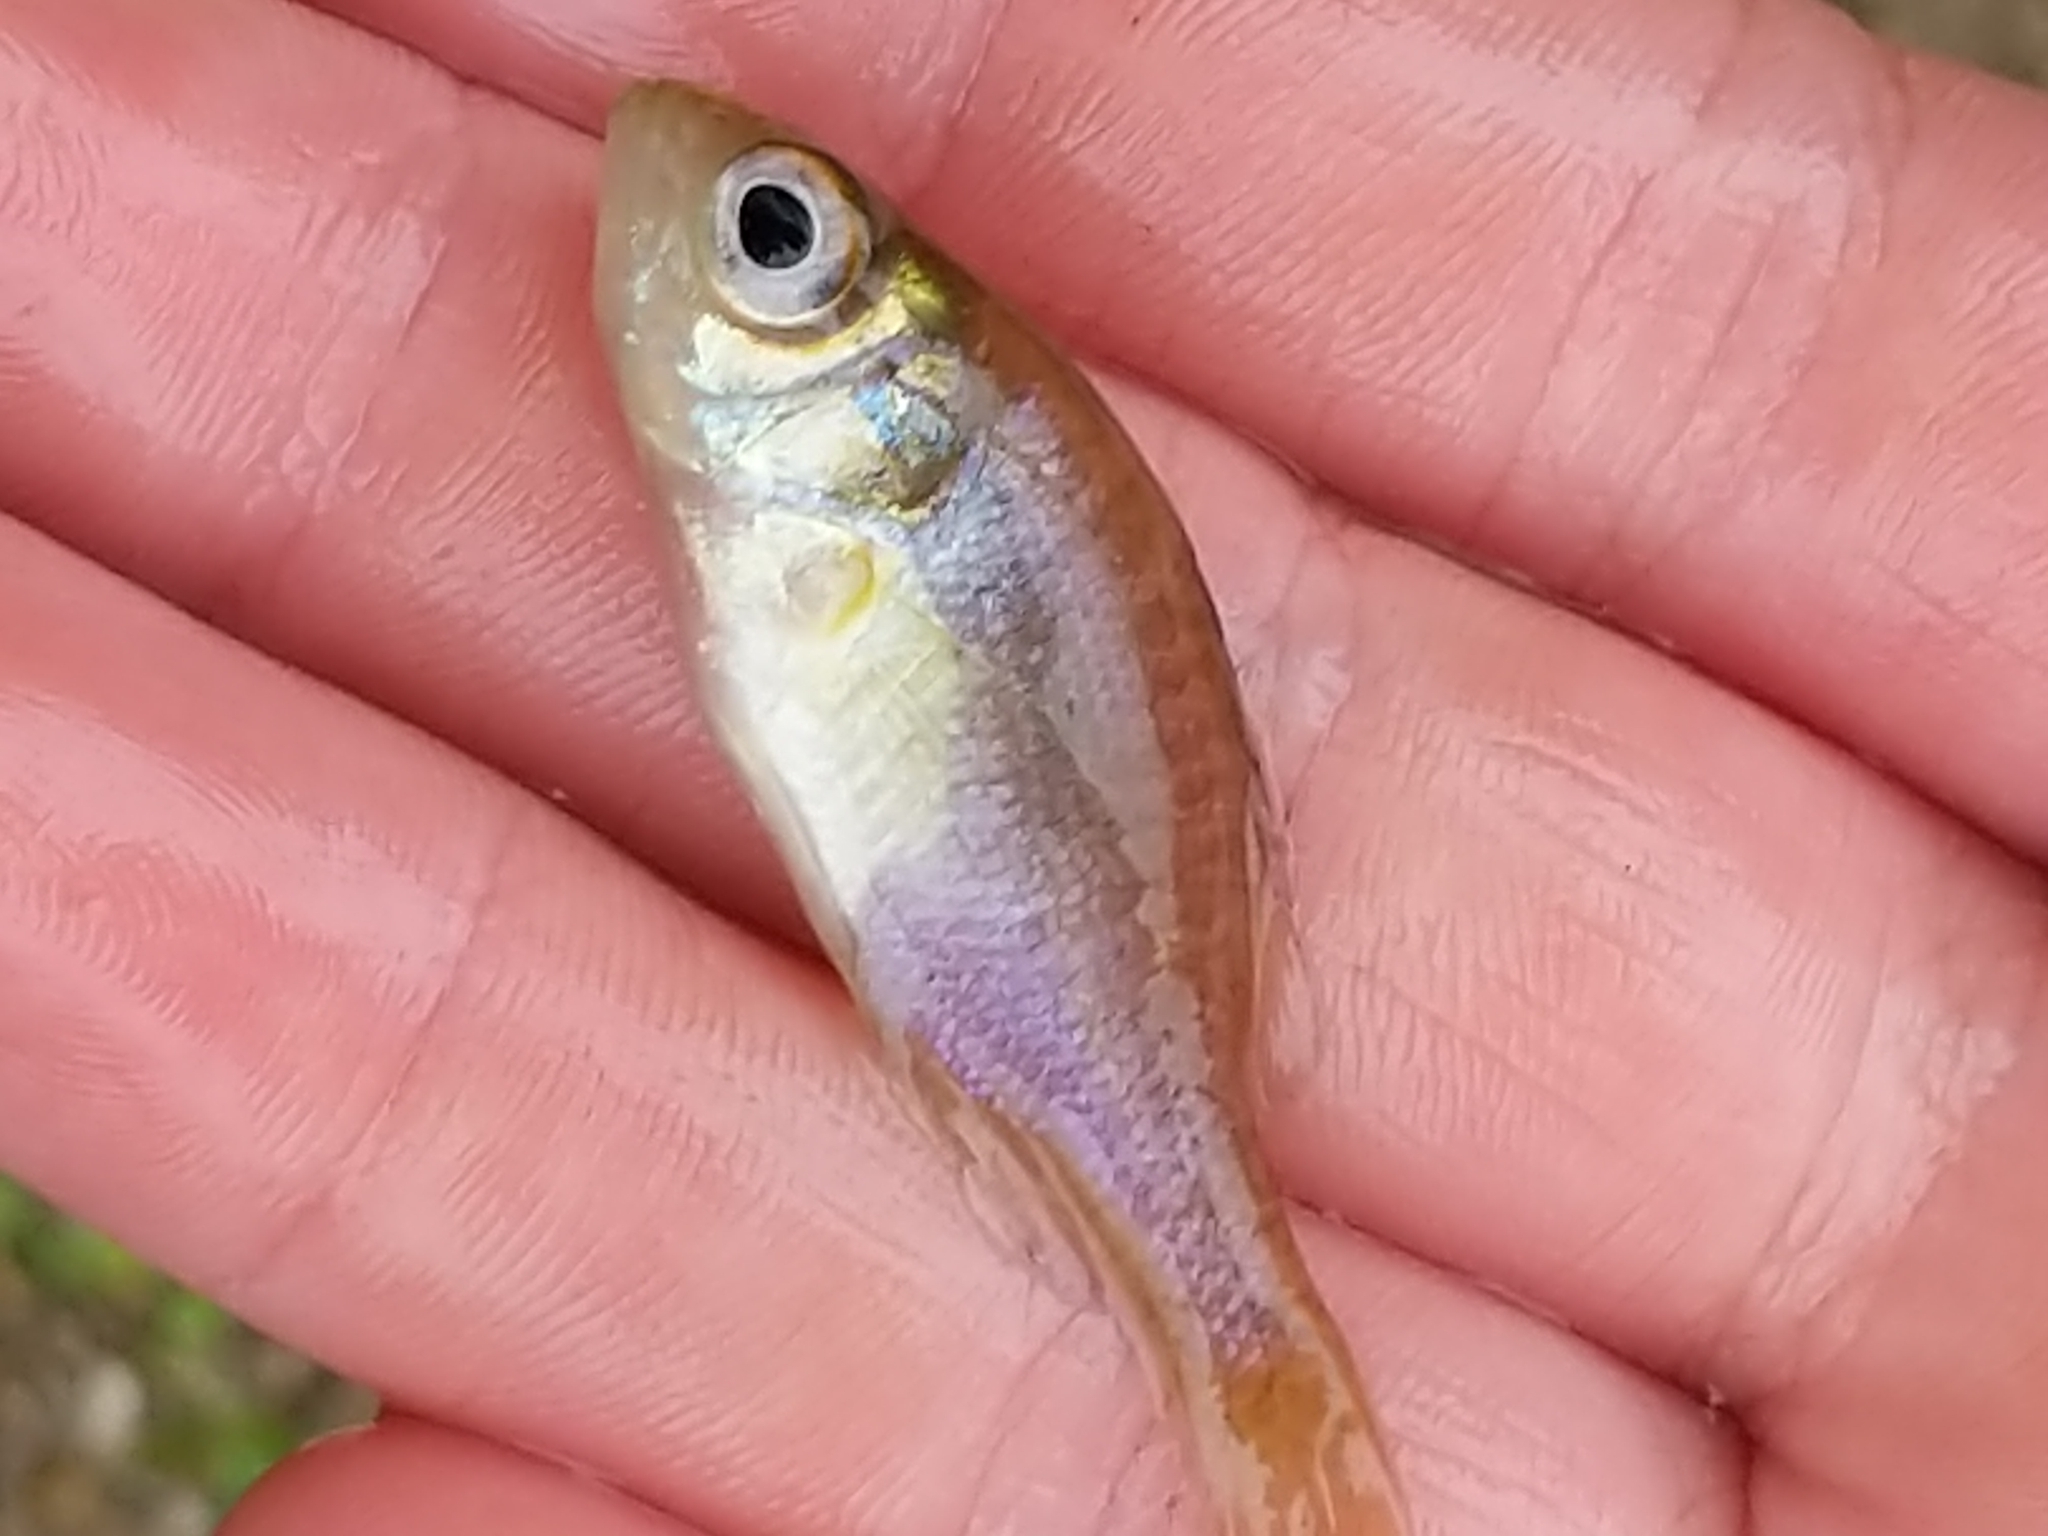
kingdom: Animalia
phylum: Chordata
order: Perciformes
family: Centrarchidae
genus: Lepomis
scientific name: Lepomis
